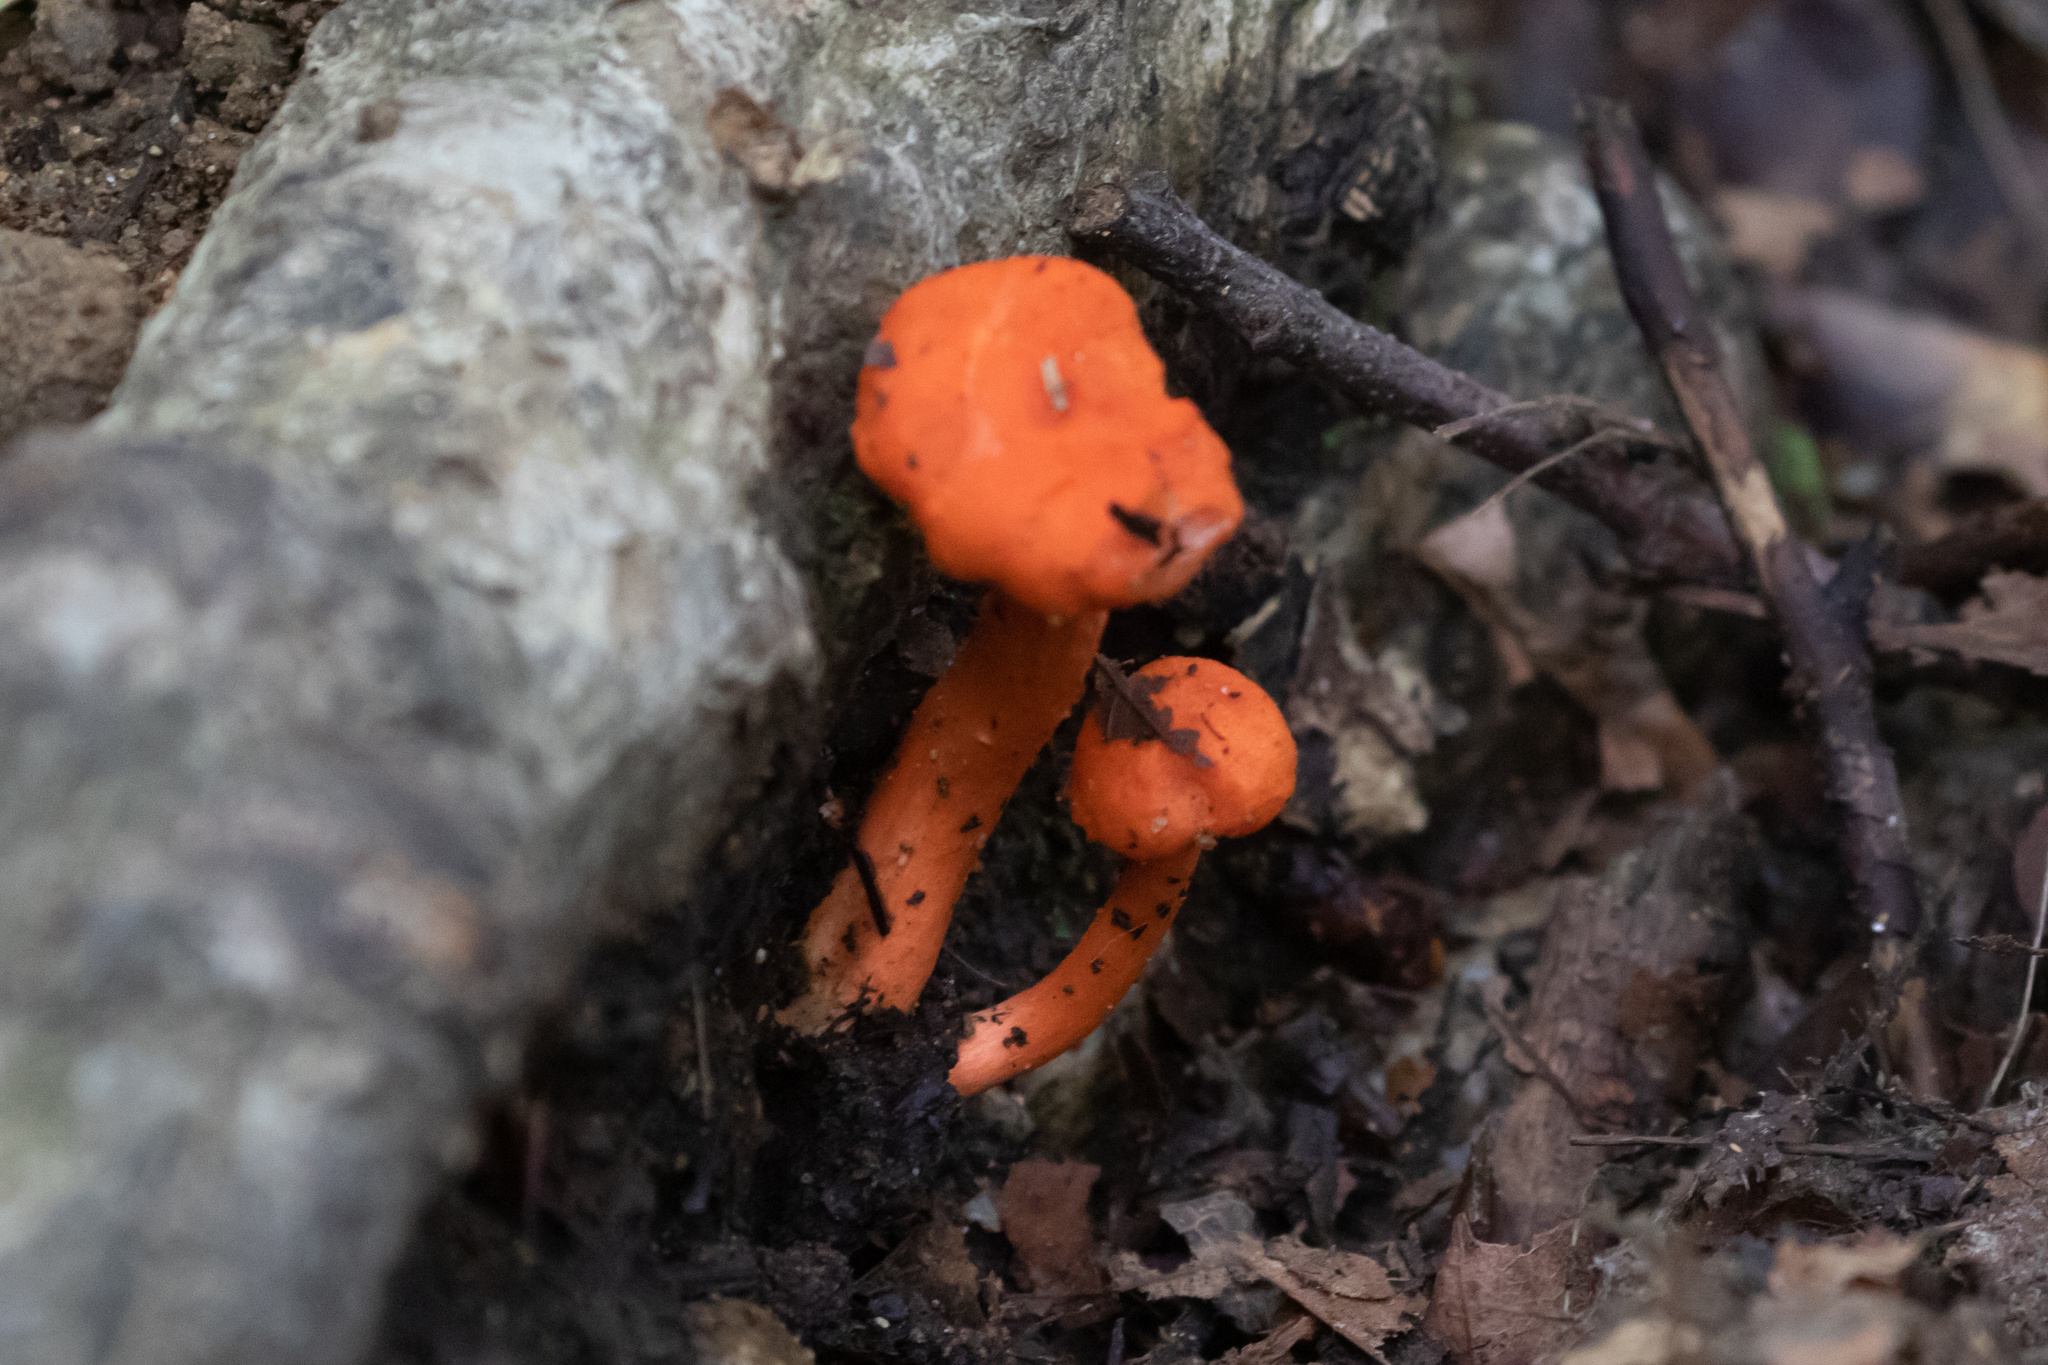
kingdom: Fungi
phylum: Basidiomycota
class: Agaricomycetes
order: Cantharellales
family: Hydnaceae
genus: Cantharellus
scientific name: Cantharellus cinnabarinus
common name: Cinnabar chanterelle
